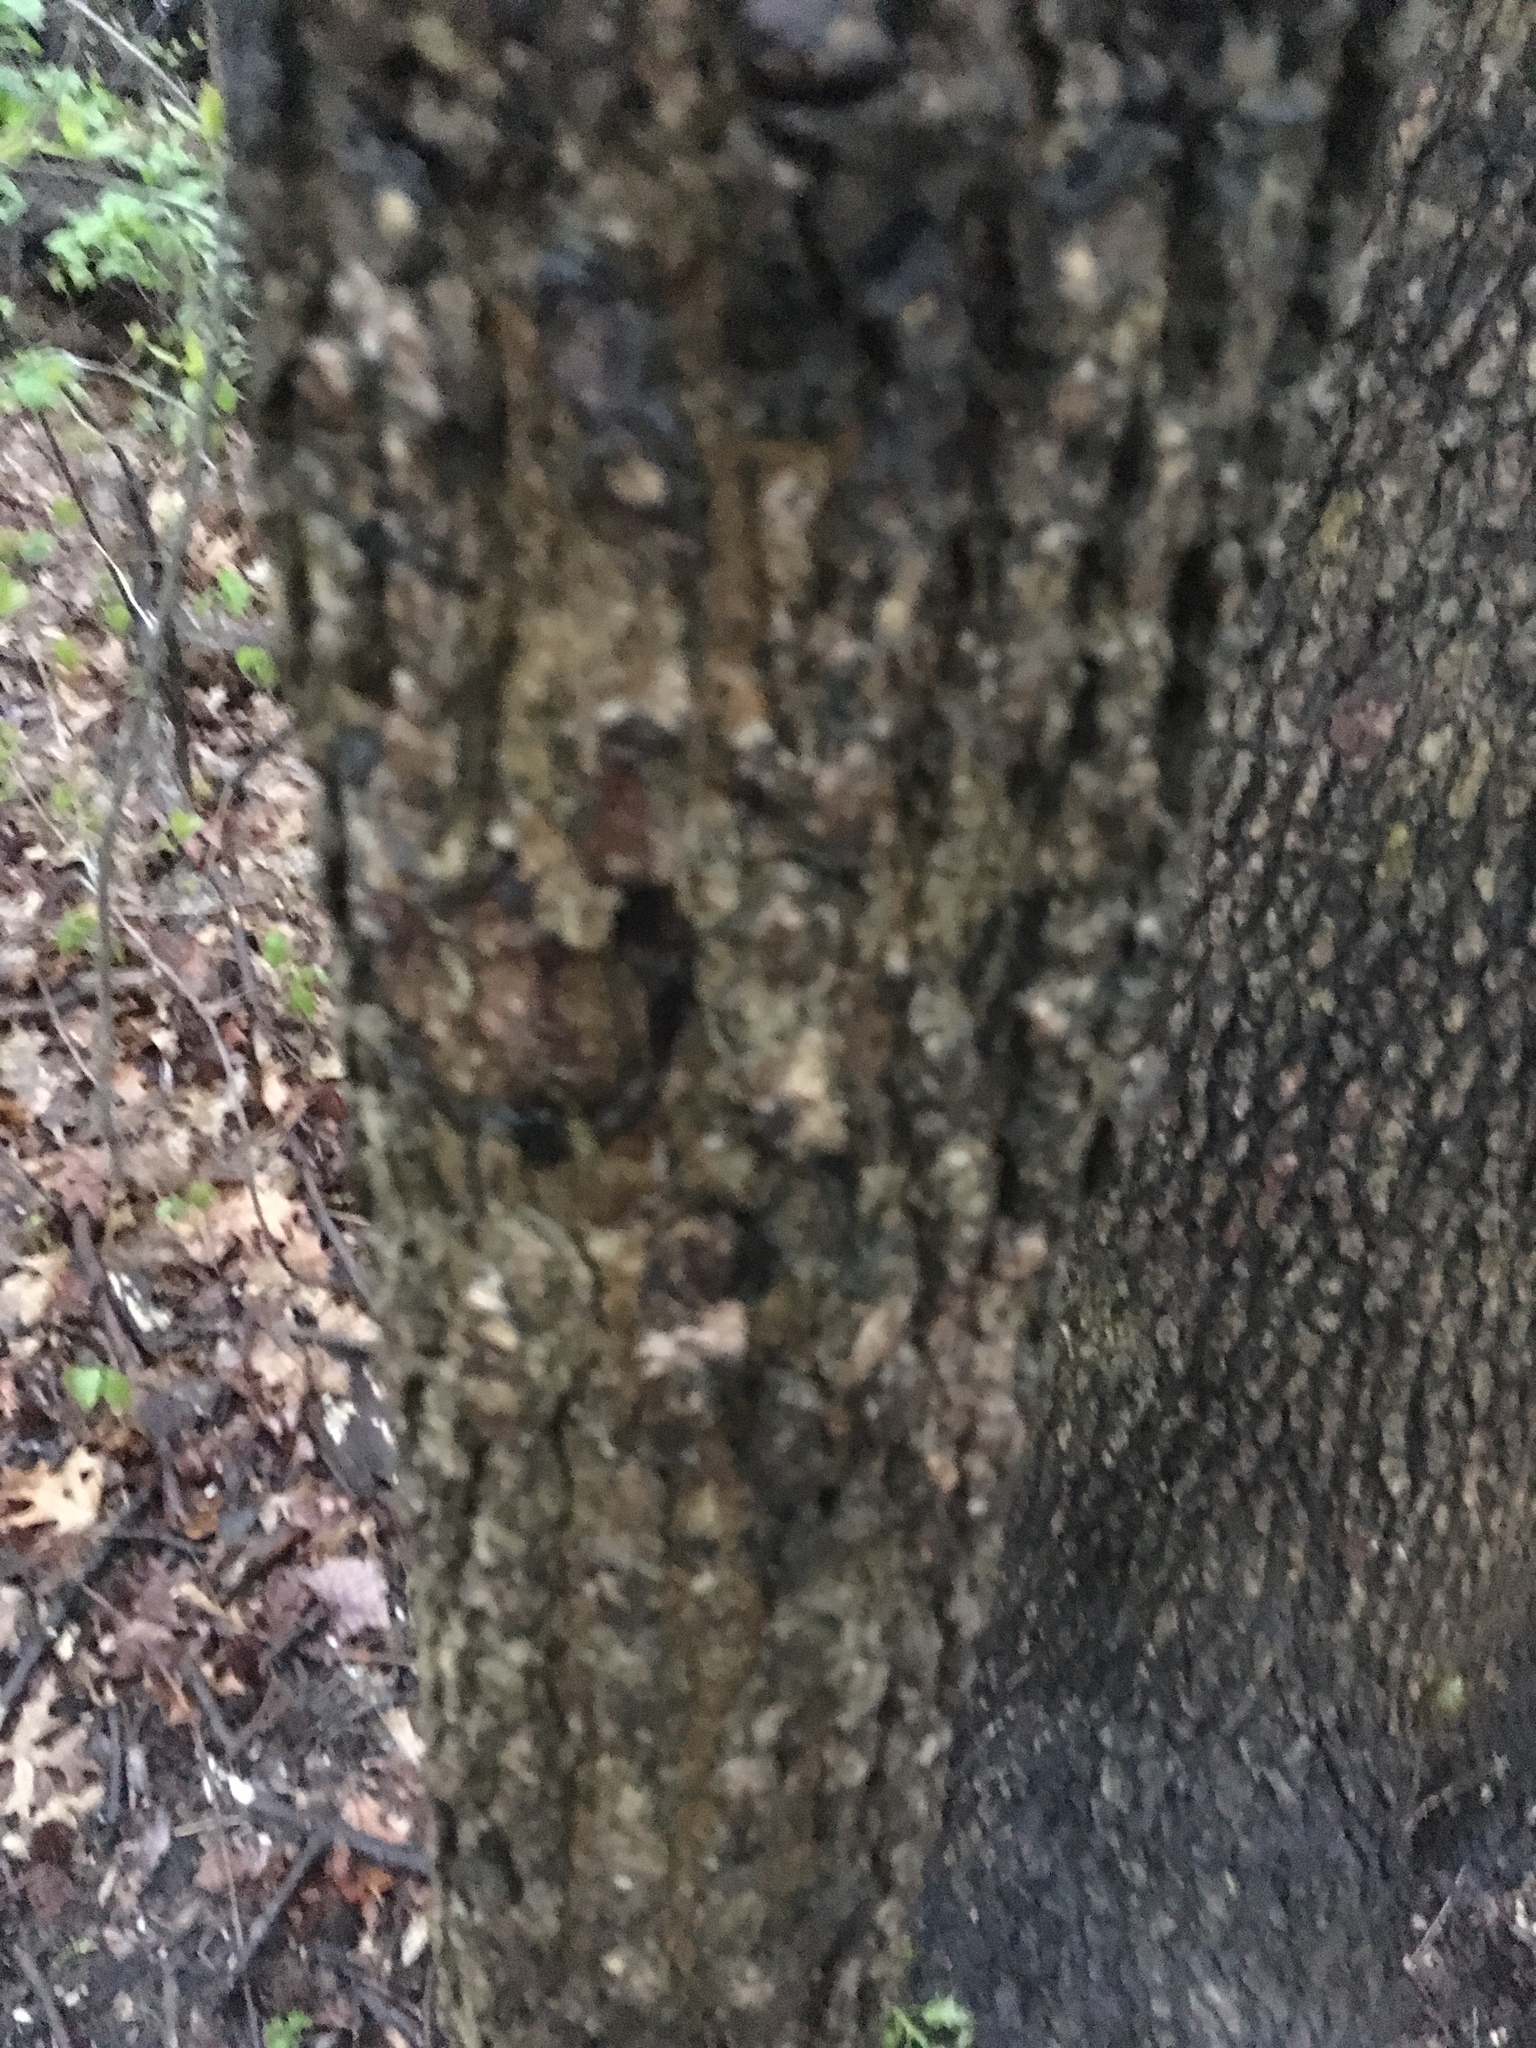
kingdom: Plantae
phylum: Tracheophyta
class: Magnoliopsida
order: Saxifragales
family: Altingiaceae
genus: Liquidambar
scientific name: Liquidambar styraciflua
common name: Sweet gum
